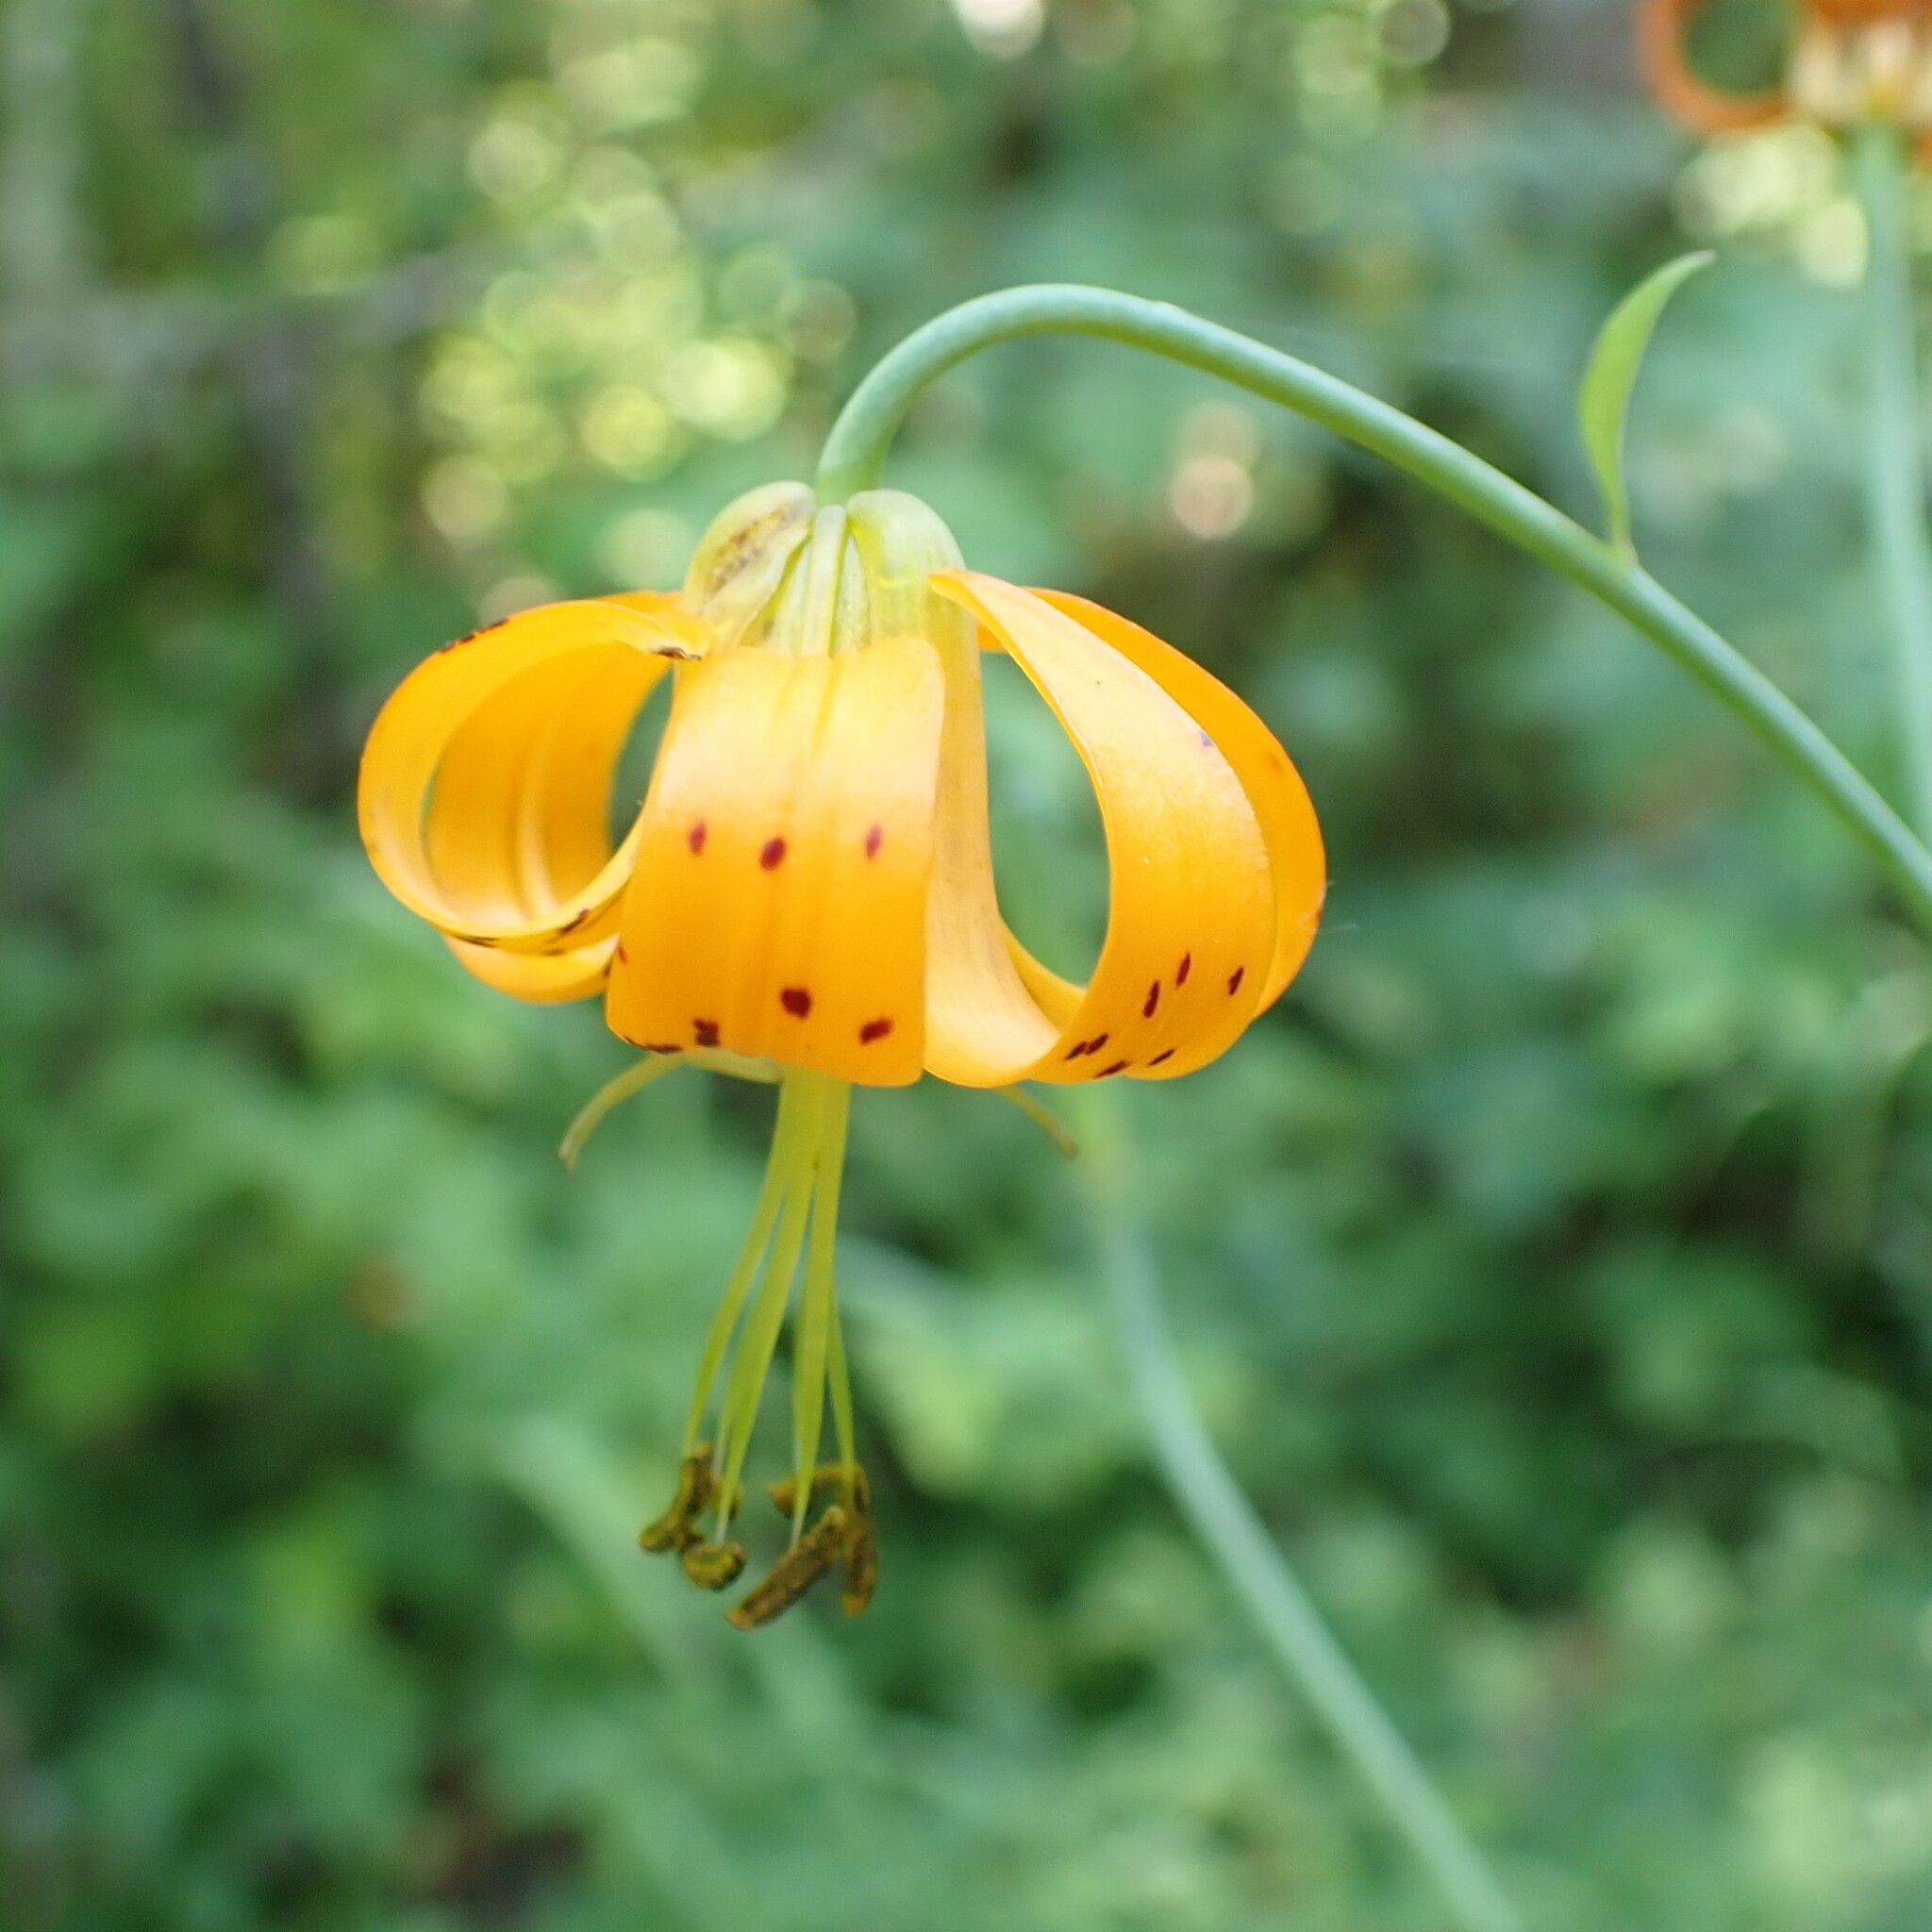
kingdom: Plantae
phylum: Tracheophyta
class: Liliopsida
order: Liliales
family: Liliaceae
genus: Lilium
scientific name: Lilium columbianum
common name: Columbia lily
